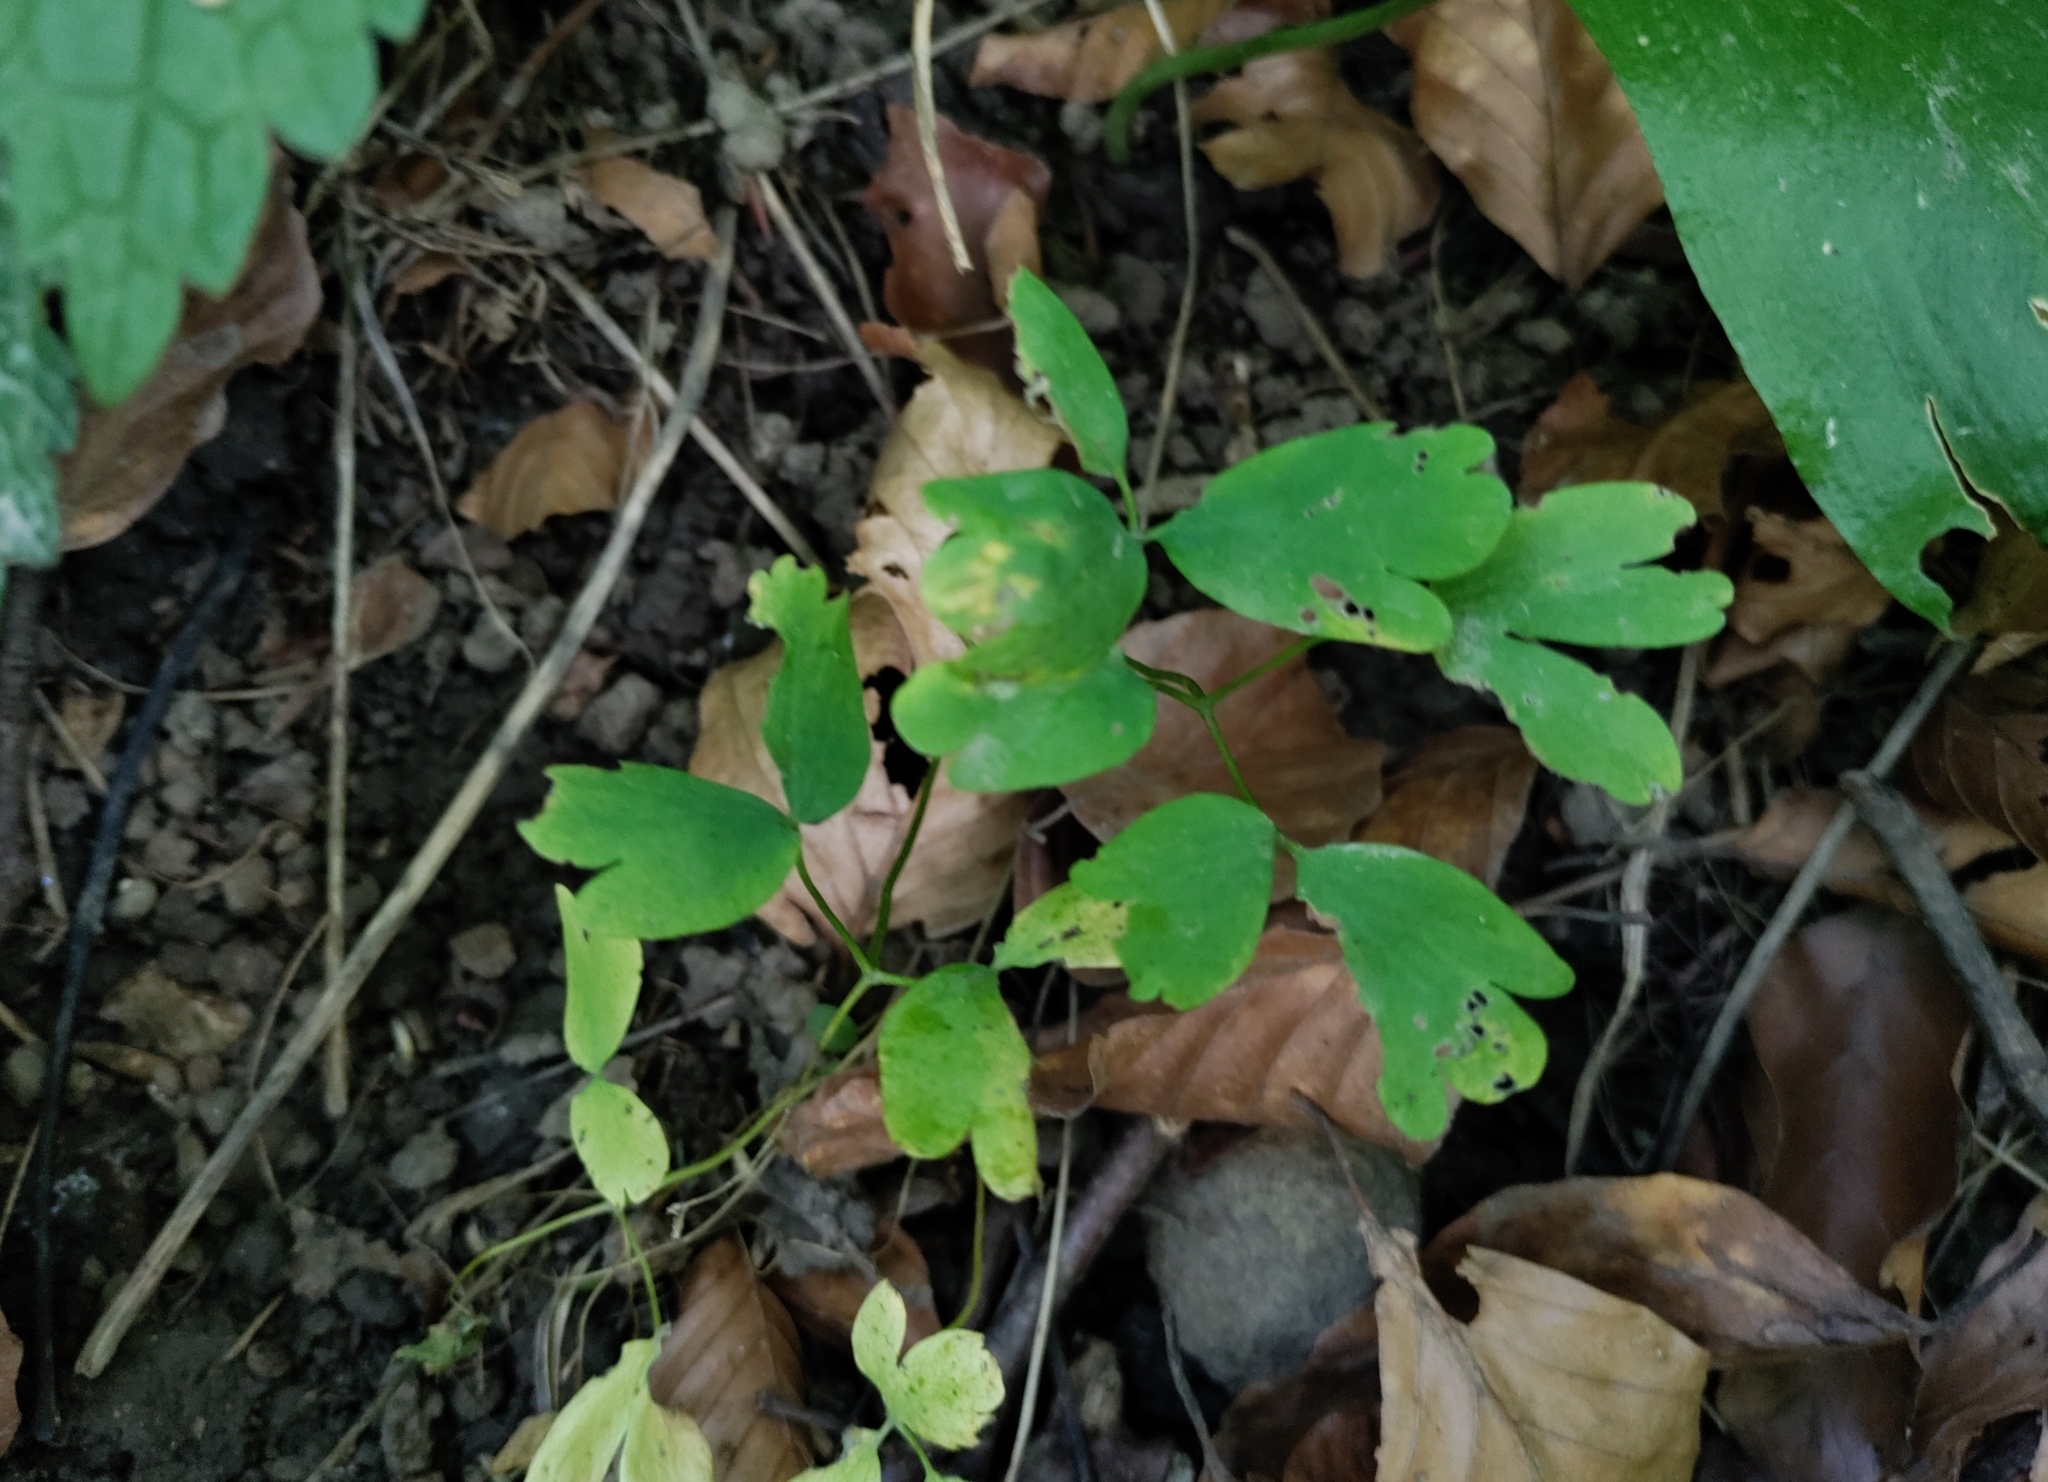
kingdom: Plantae
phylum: Tracheophyta
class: Magnoliopsida
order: Ranunculales
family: Ranunculaceae
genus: Isopyrum
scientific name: Isopyrum thalictroides
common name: Isopyrum
